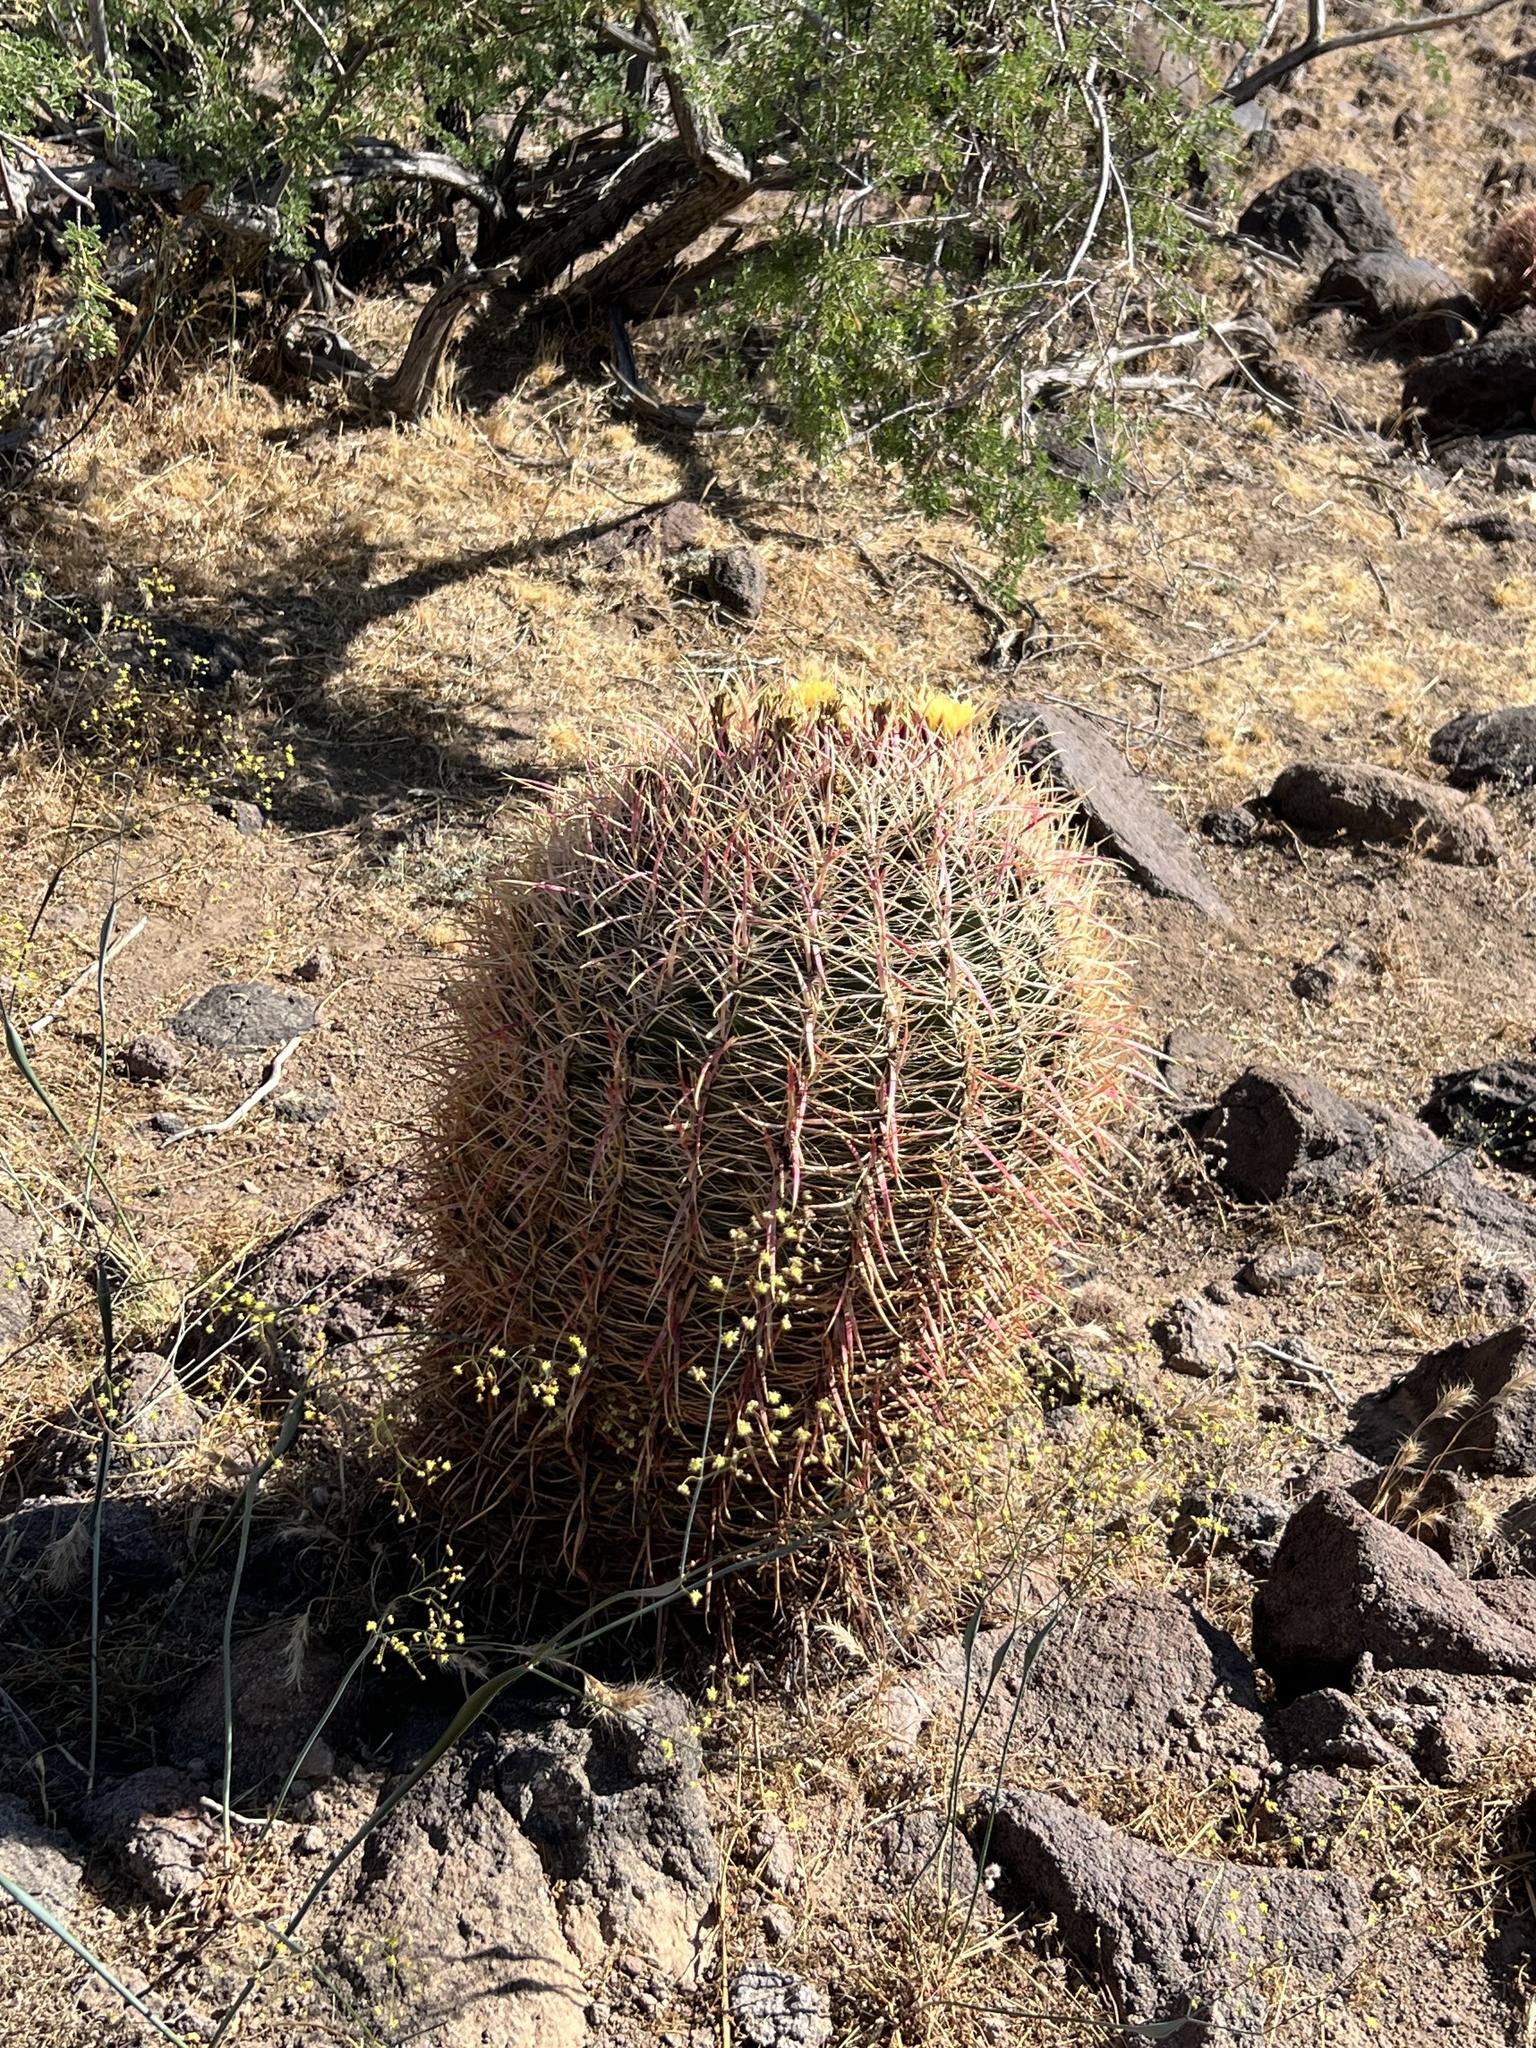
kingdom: Plantae
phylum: Tracheophyta
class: Magnoliopsida
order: Caryophyllales
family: Cactaceae
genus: Ferocactus
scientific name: Ferocactus cylindraceus
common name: California barrel cactus
